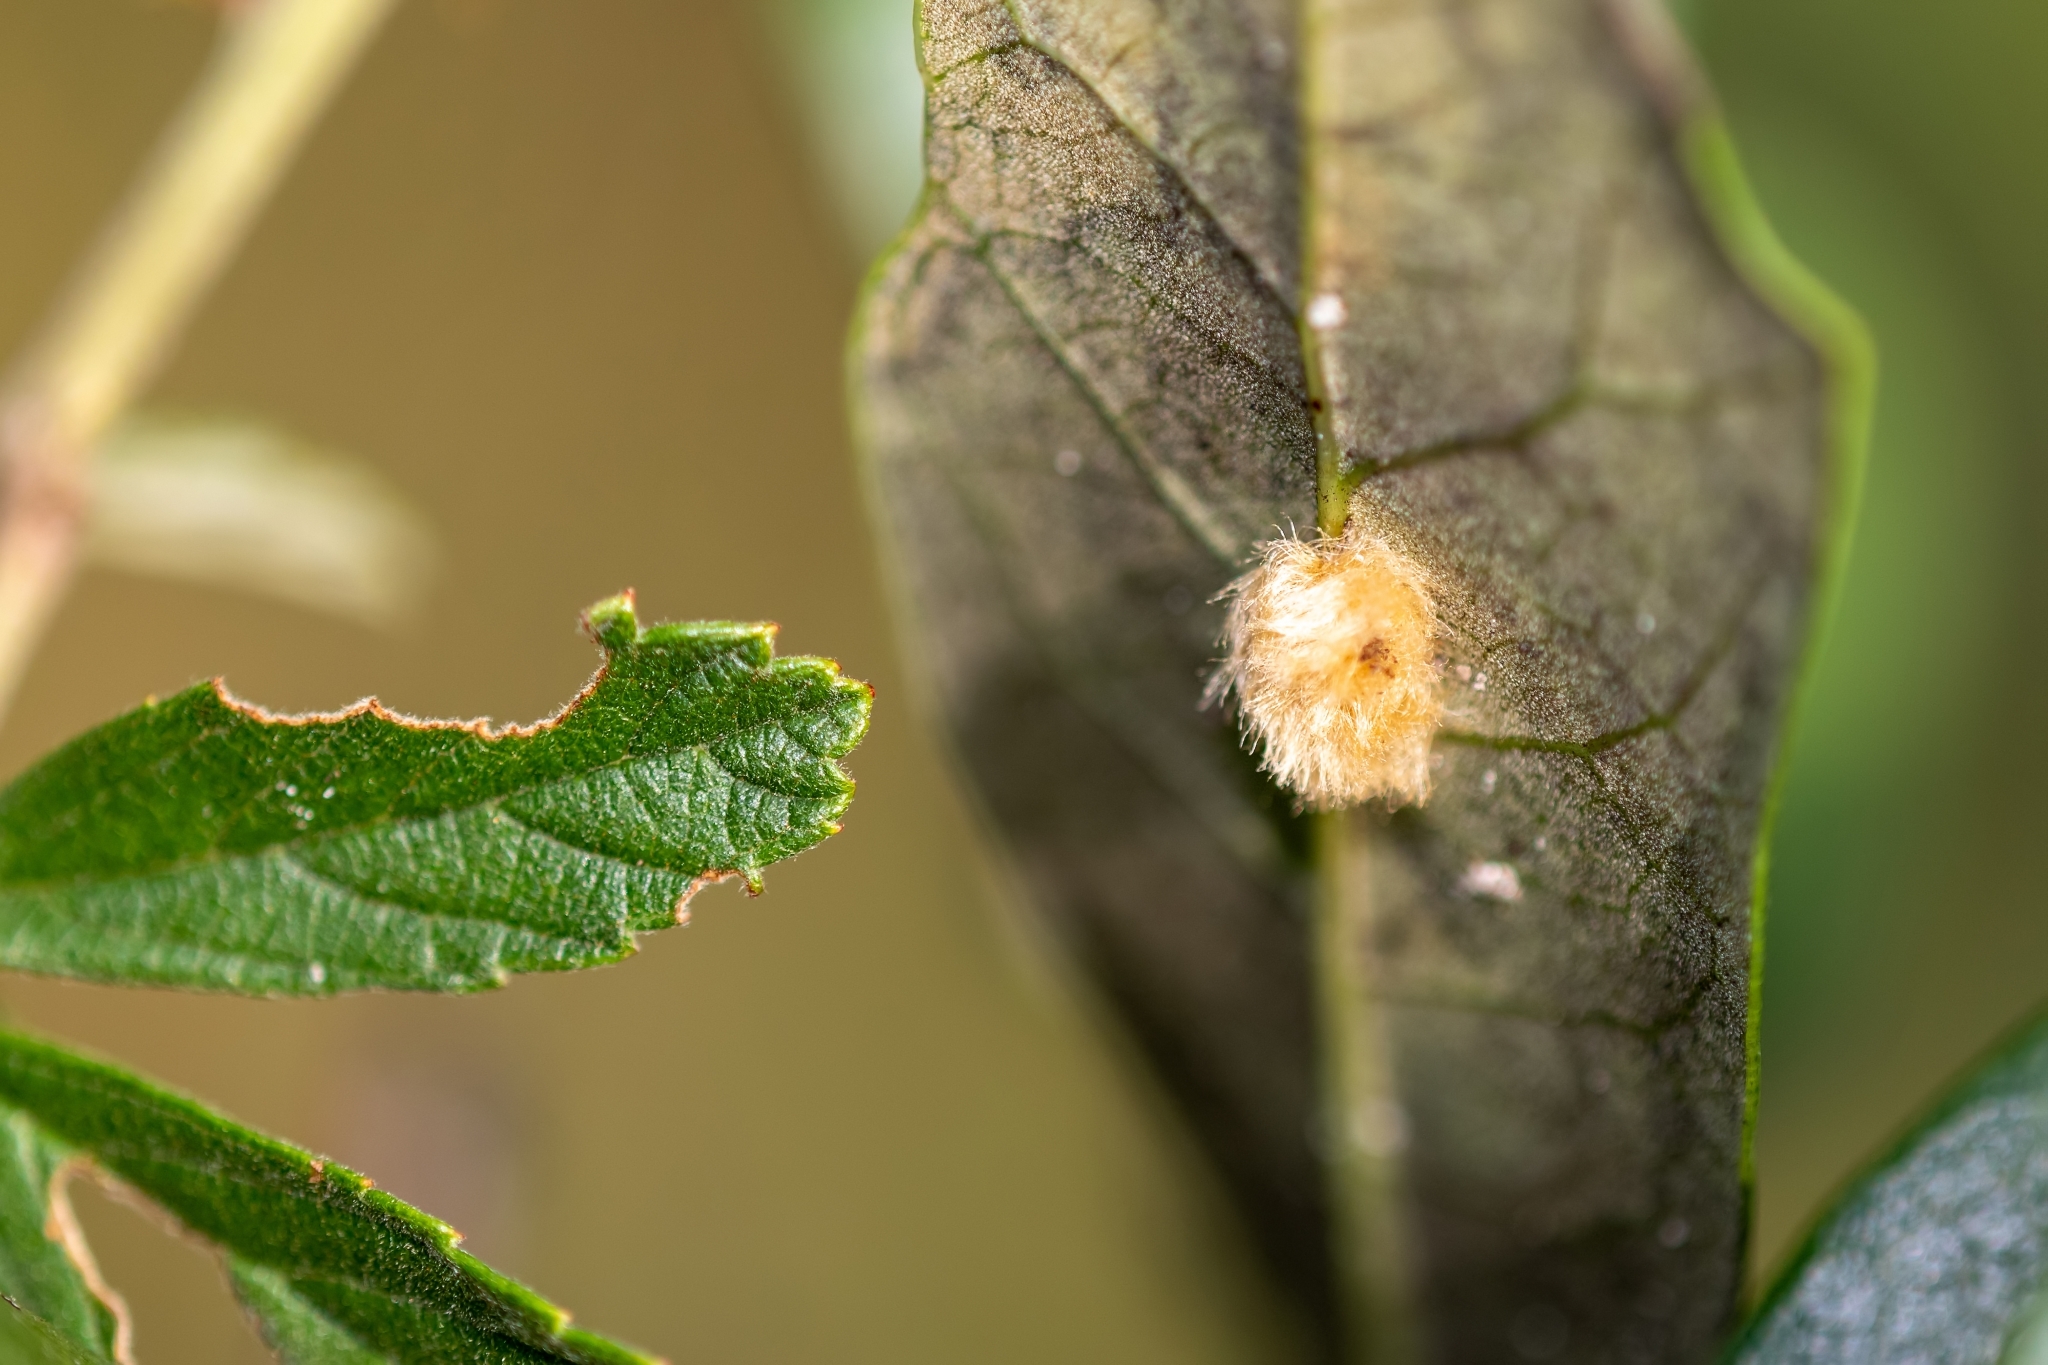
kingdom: Animalia
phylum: Arthropoda
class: Insecta
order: Hymenoptera
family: Cynipidae
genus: Andricus
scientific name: Andricus Druon quercuslanigerum
